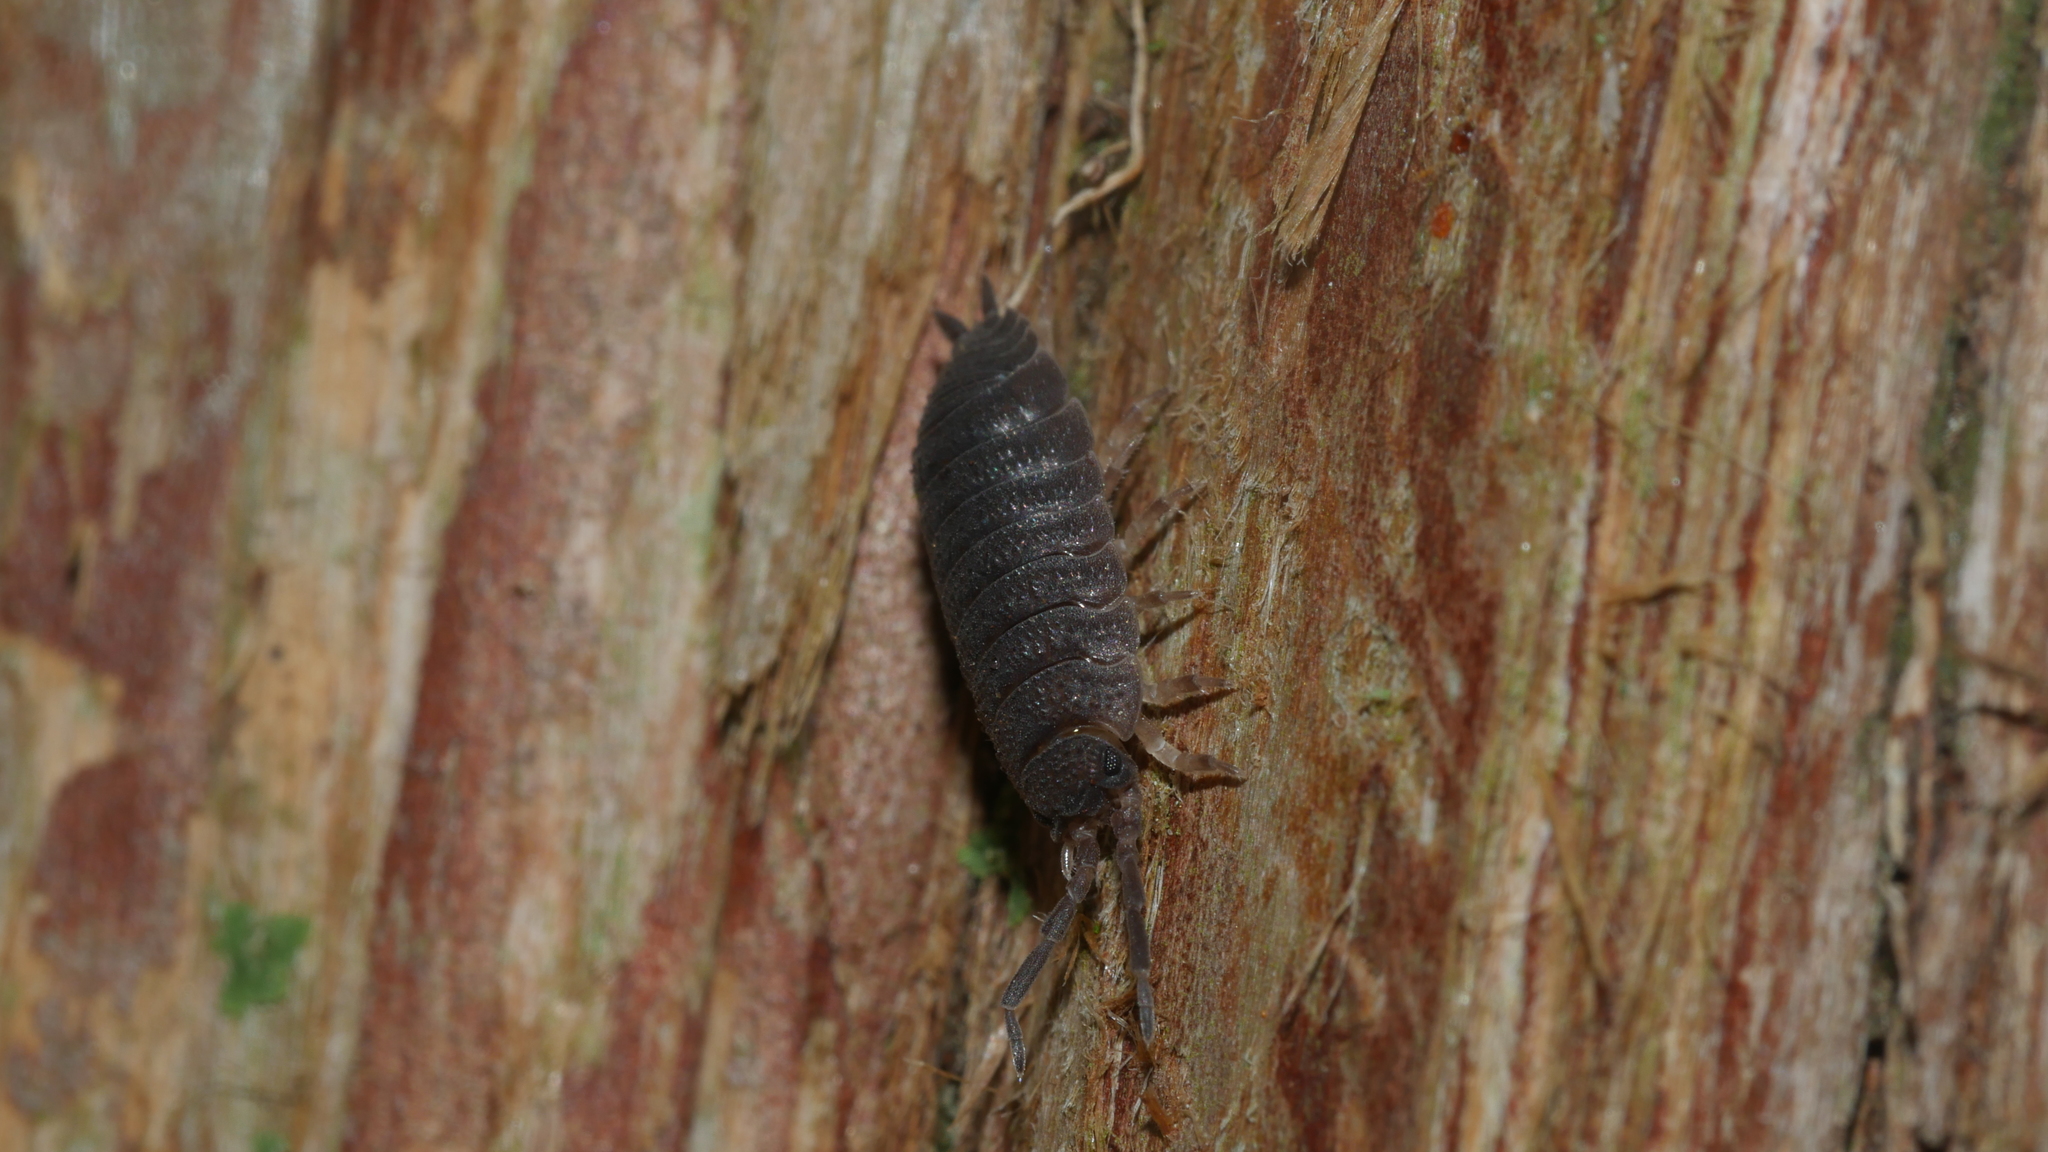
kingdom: Animalia
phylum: Arthropoda
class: Malacostraca
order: Isopoda
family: Porcellionidae
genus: Porcellio
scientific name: Porcellio scaber
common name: Common rough woodlouse
